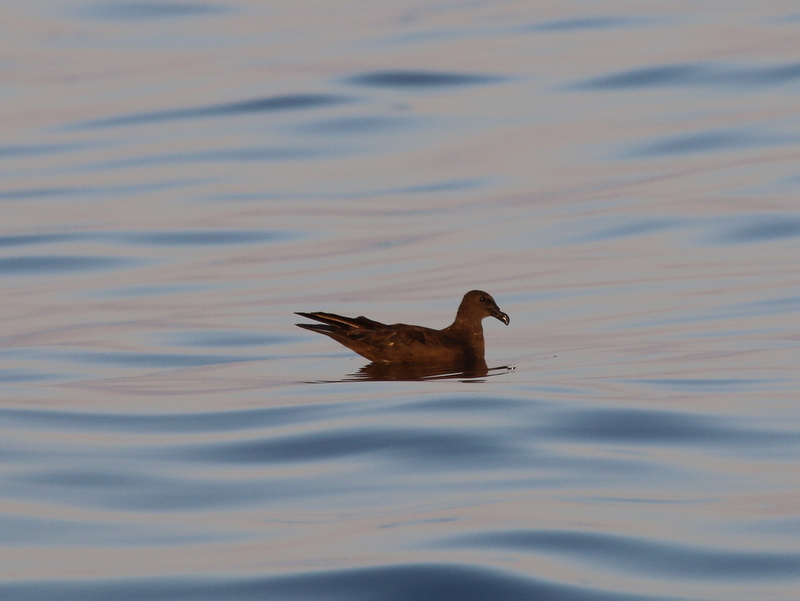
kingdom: Animalia
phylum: Chordata
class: Aves
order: Procellariiformes
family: Procellariidae
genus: Bulweria
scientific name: Bulweria fallax
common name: Jouanin's petrel
